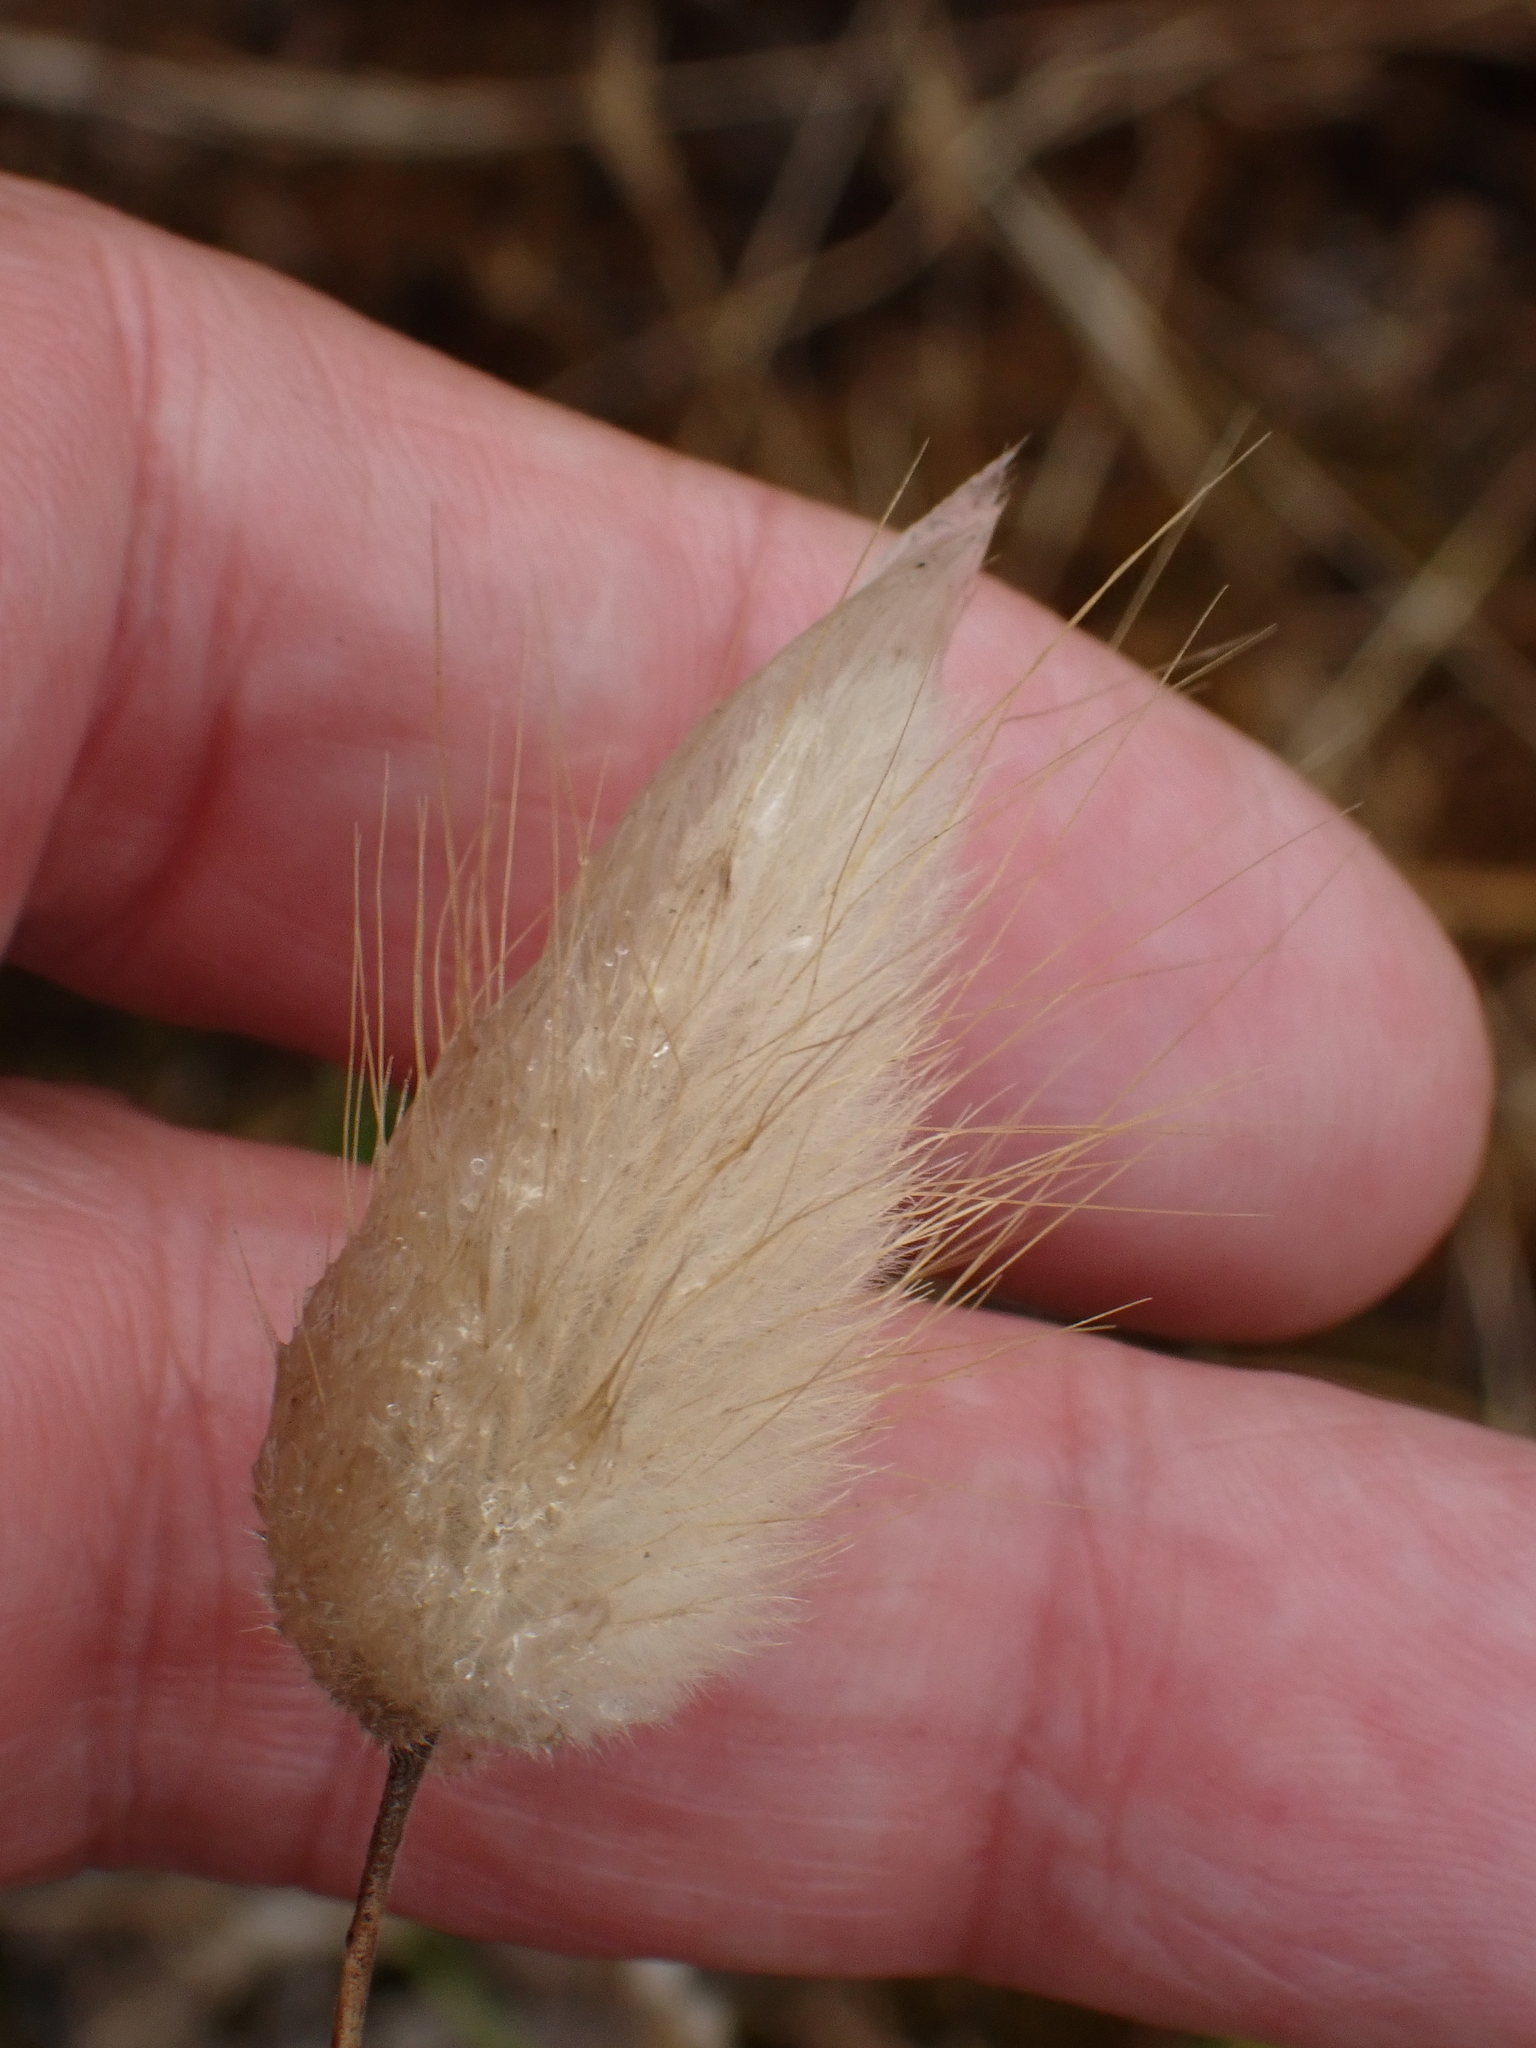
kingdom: Plantae
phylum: Tracheophyta
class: Liliopsida
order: Poales
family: Poaceae
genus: Lagurus
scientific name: Lagurus ovatus
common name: Hare's-tail
